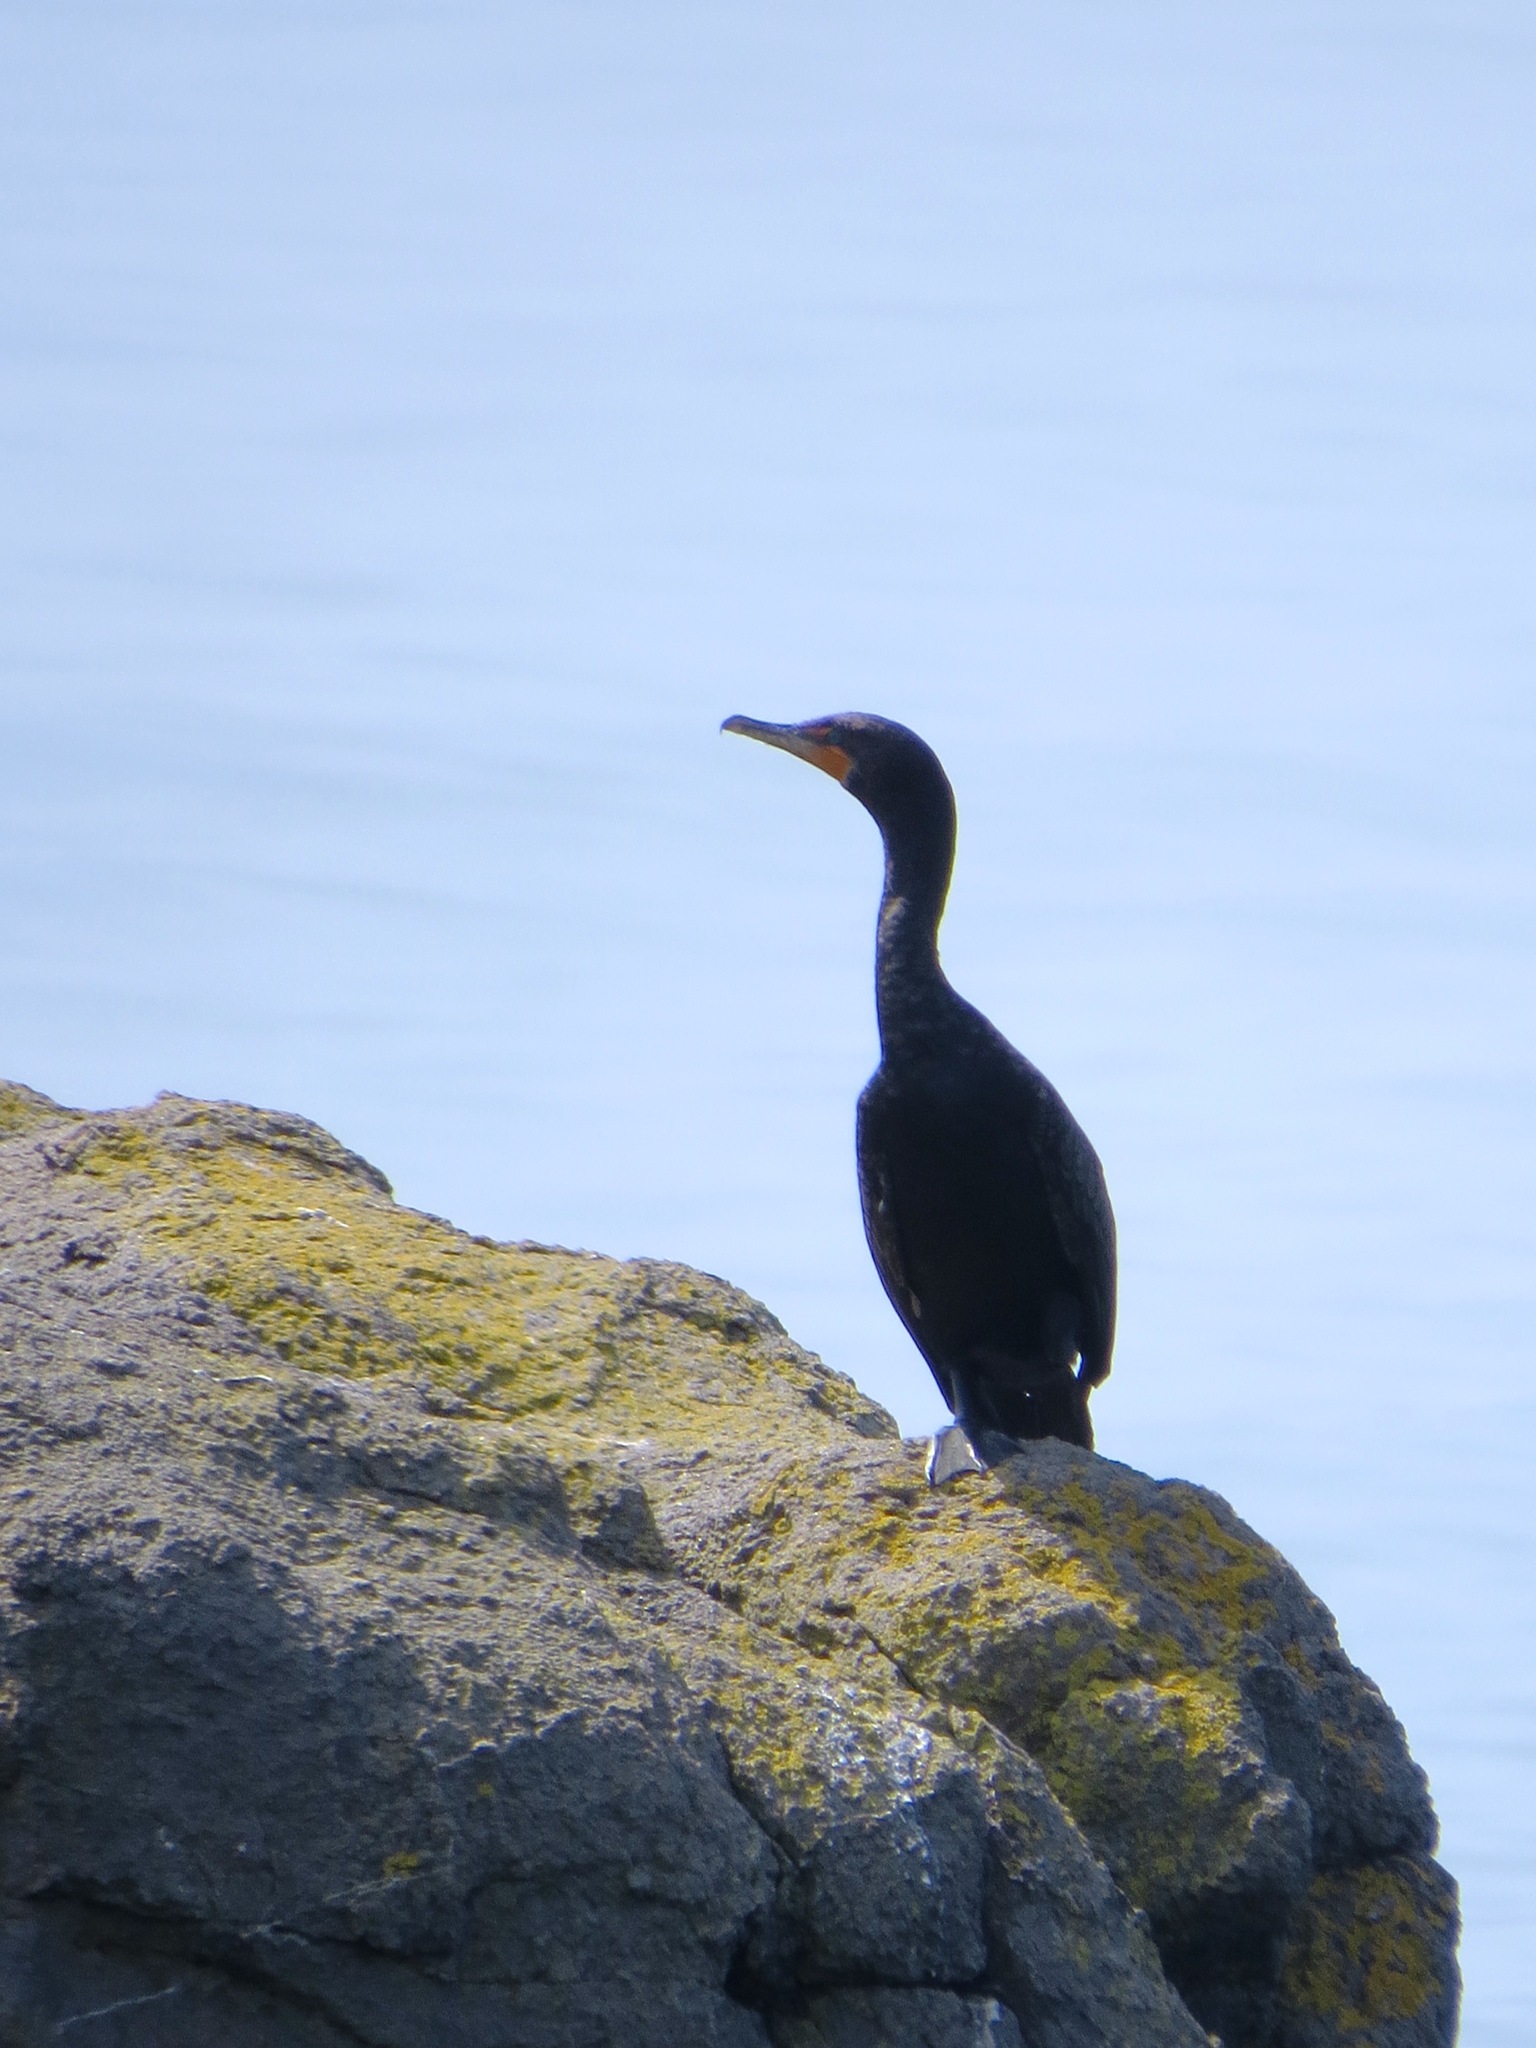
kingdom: Animalia
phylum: Chordata
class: Aves
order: Suliformes
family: Phalacrocoracidae
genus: Phalacrocorax
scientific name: Phalacrocorax auritus
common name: Double-crested cormorant
